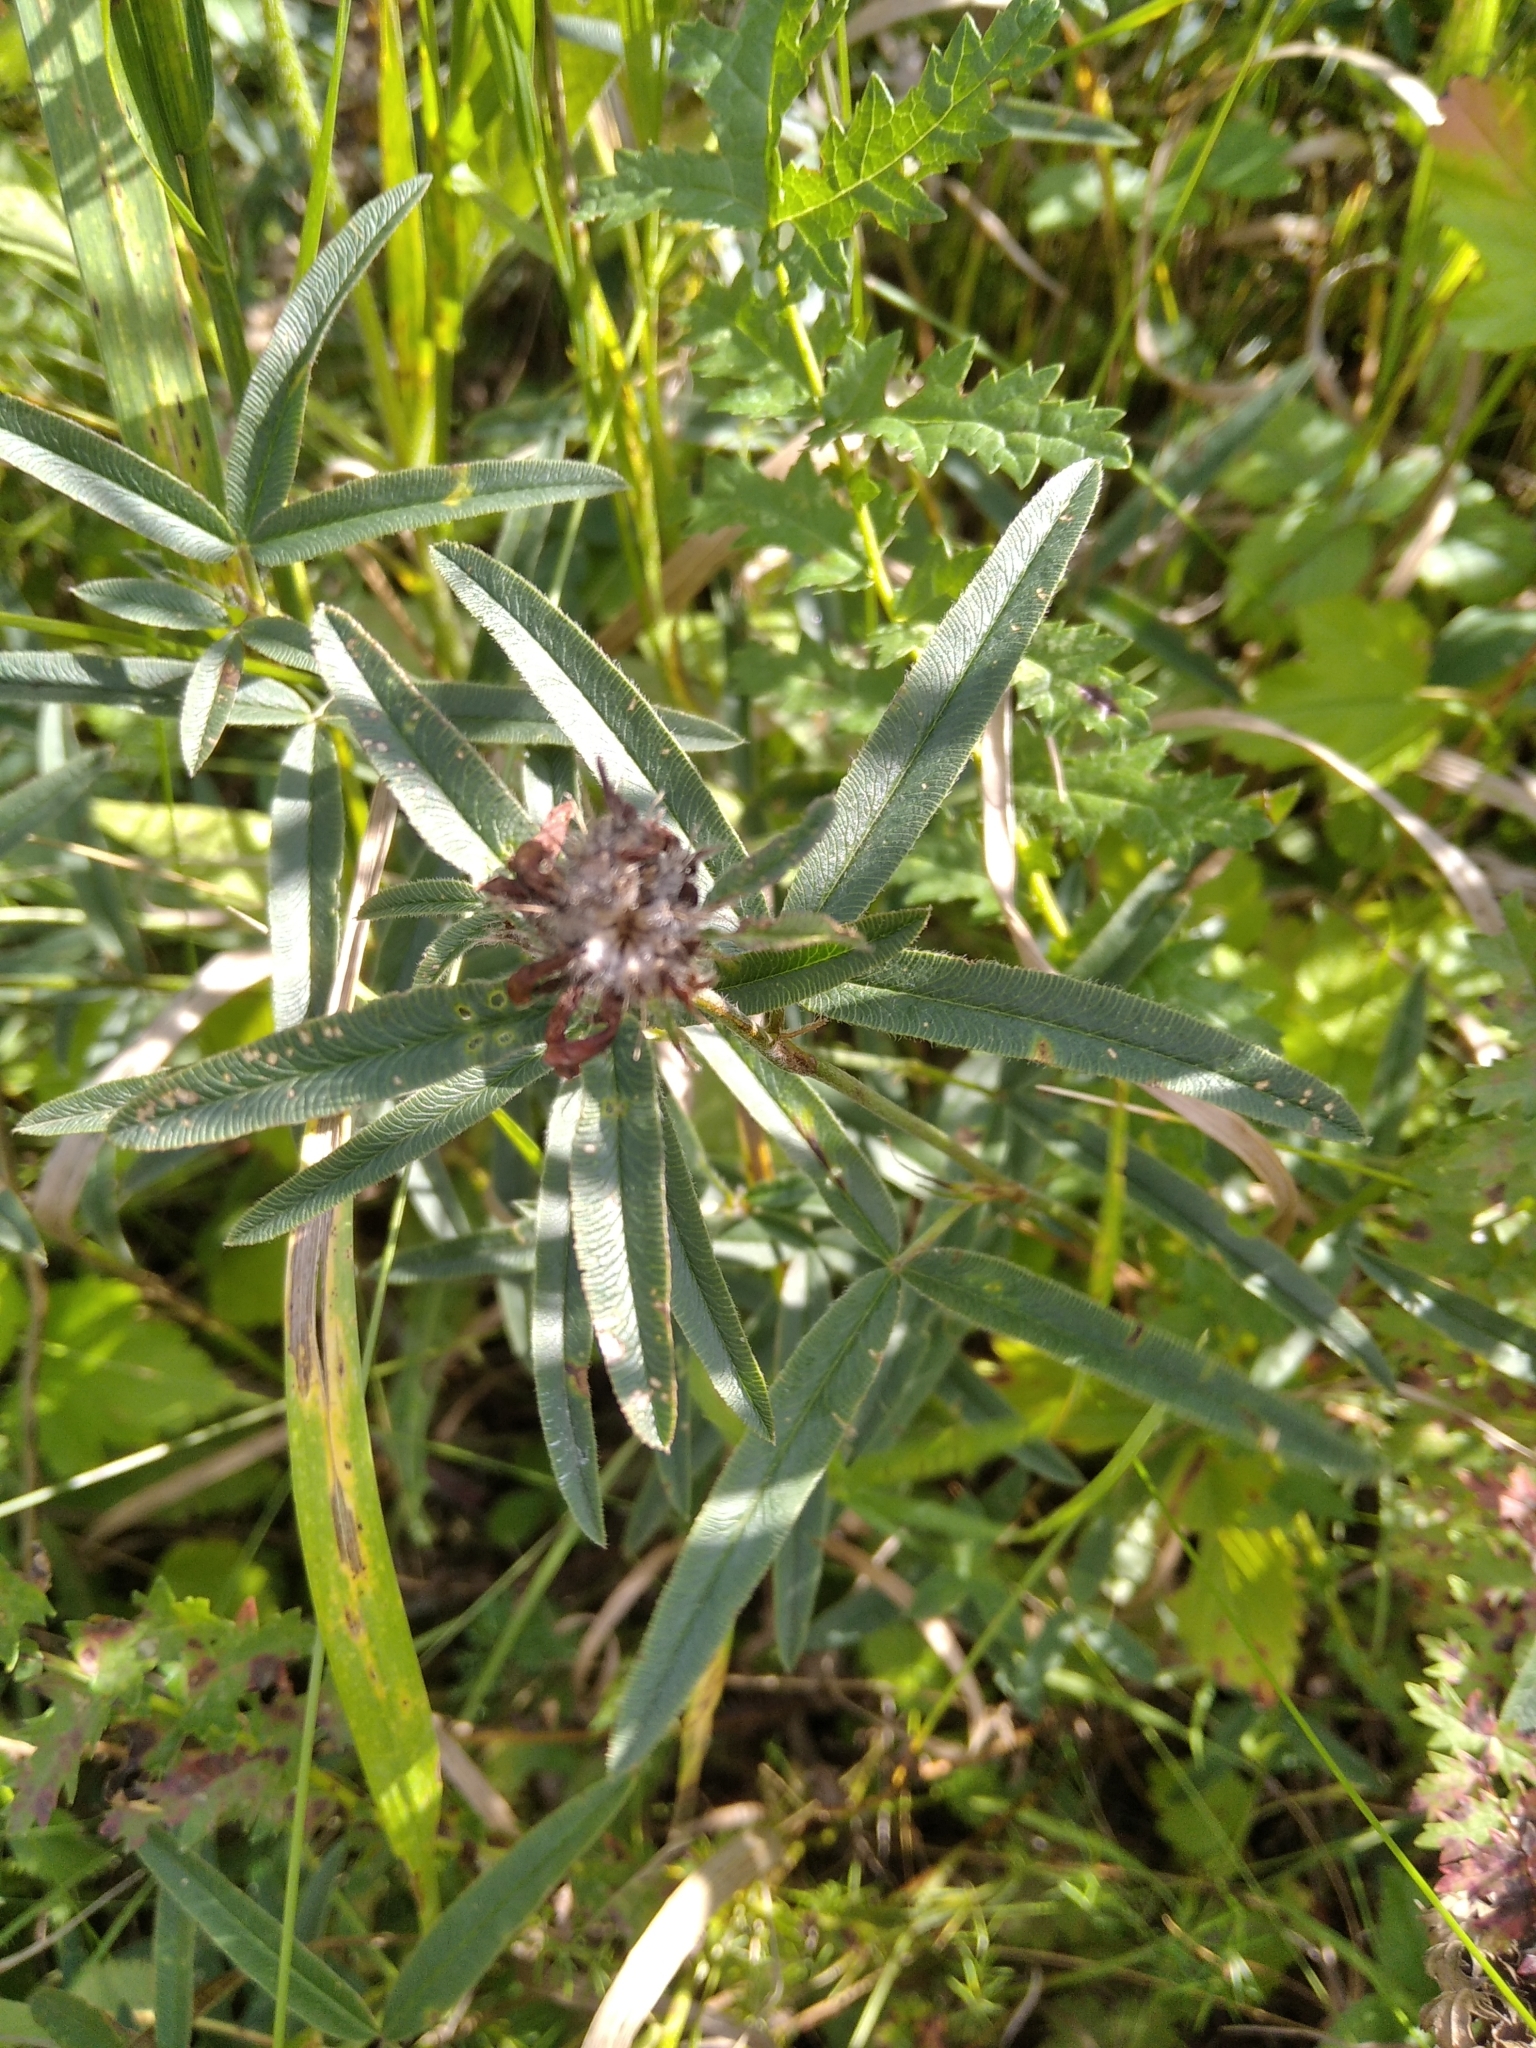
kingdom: Plantae
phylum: Tracheophyta
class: Magnoliopsida
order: Fabales
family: Fabaceae
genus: Trifolium
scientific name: Trifolium alpestre
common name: Owl-head clover
